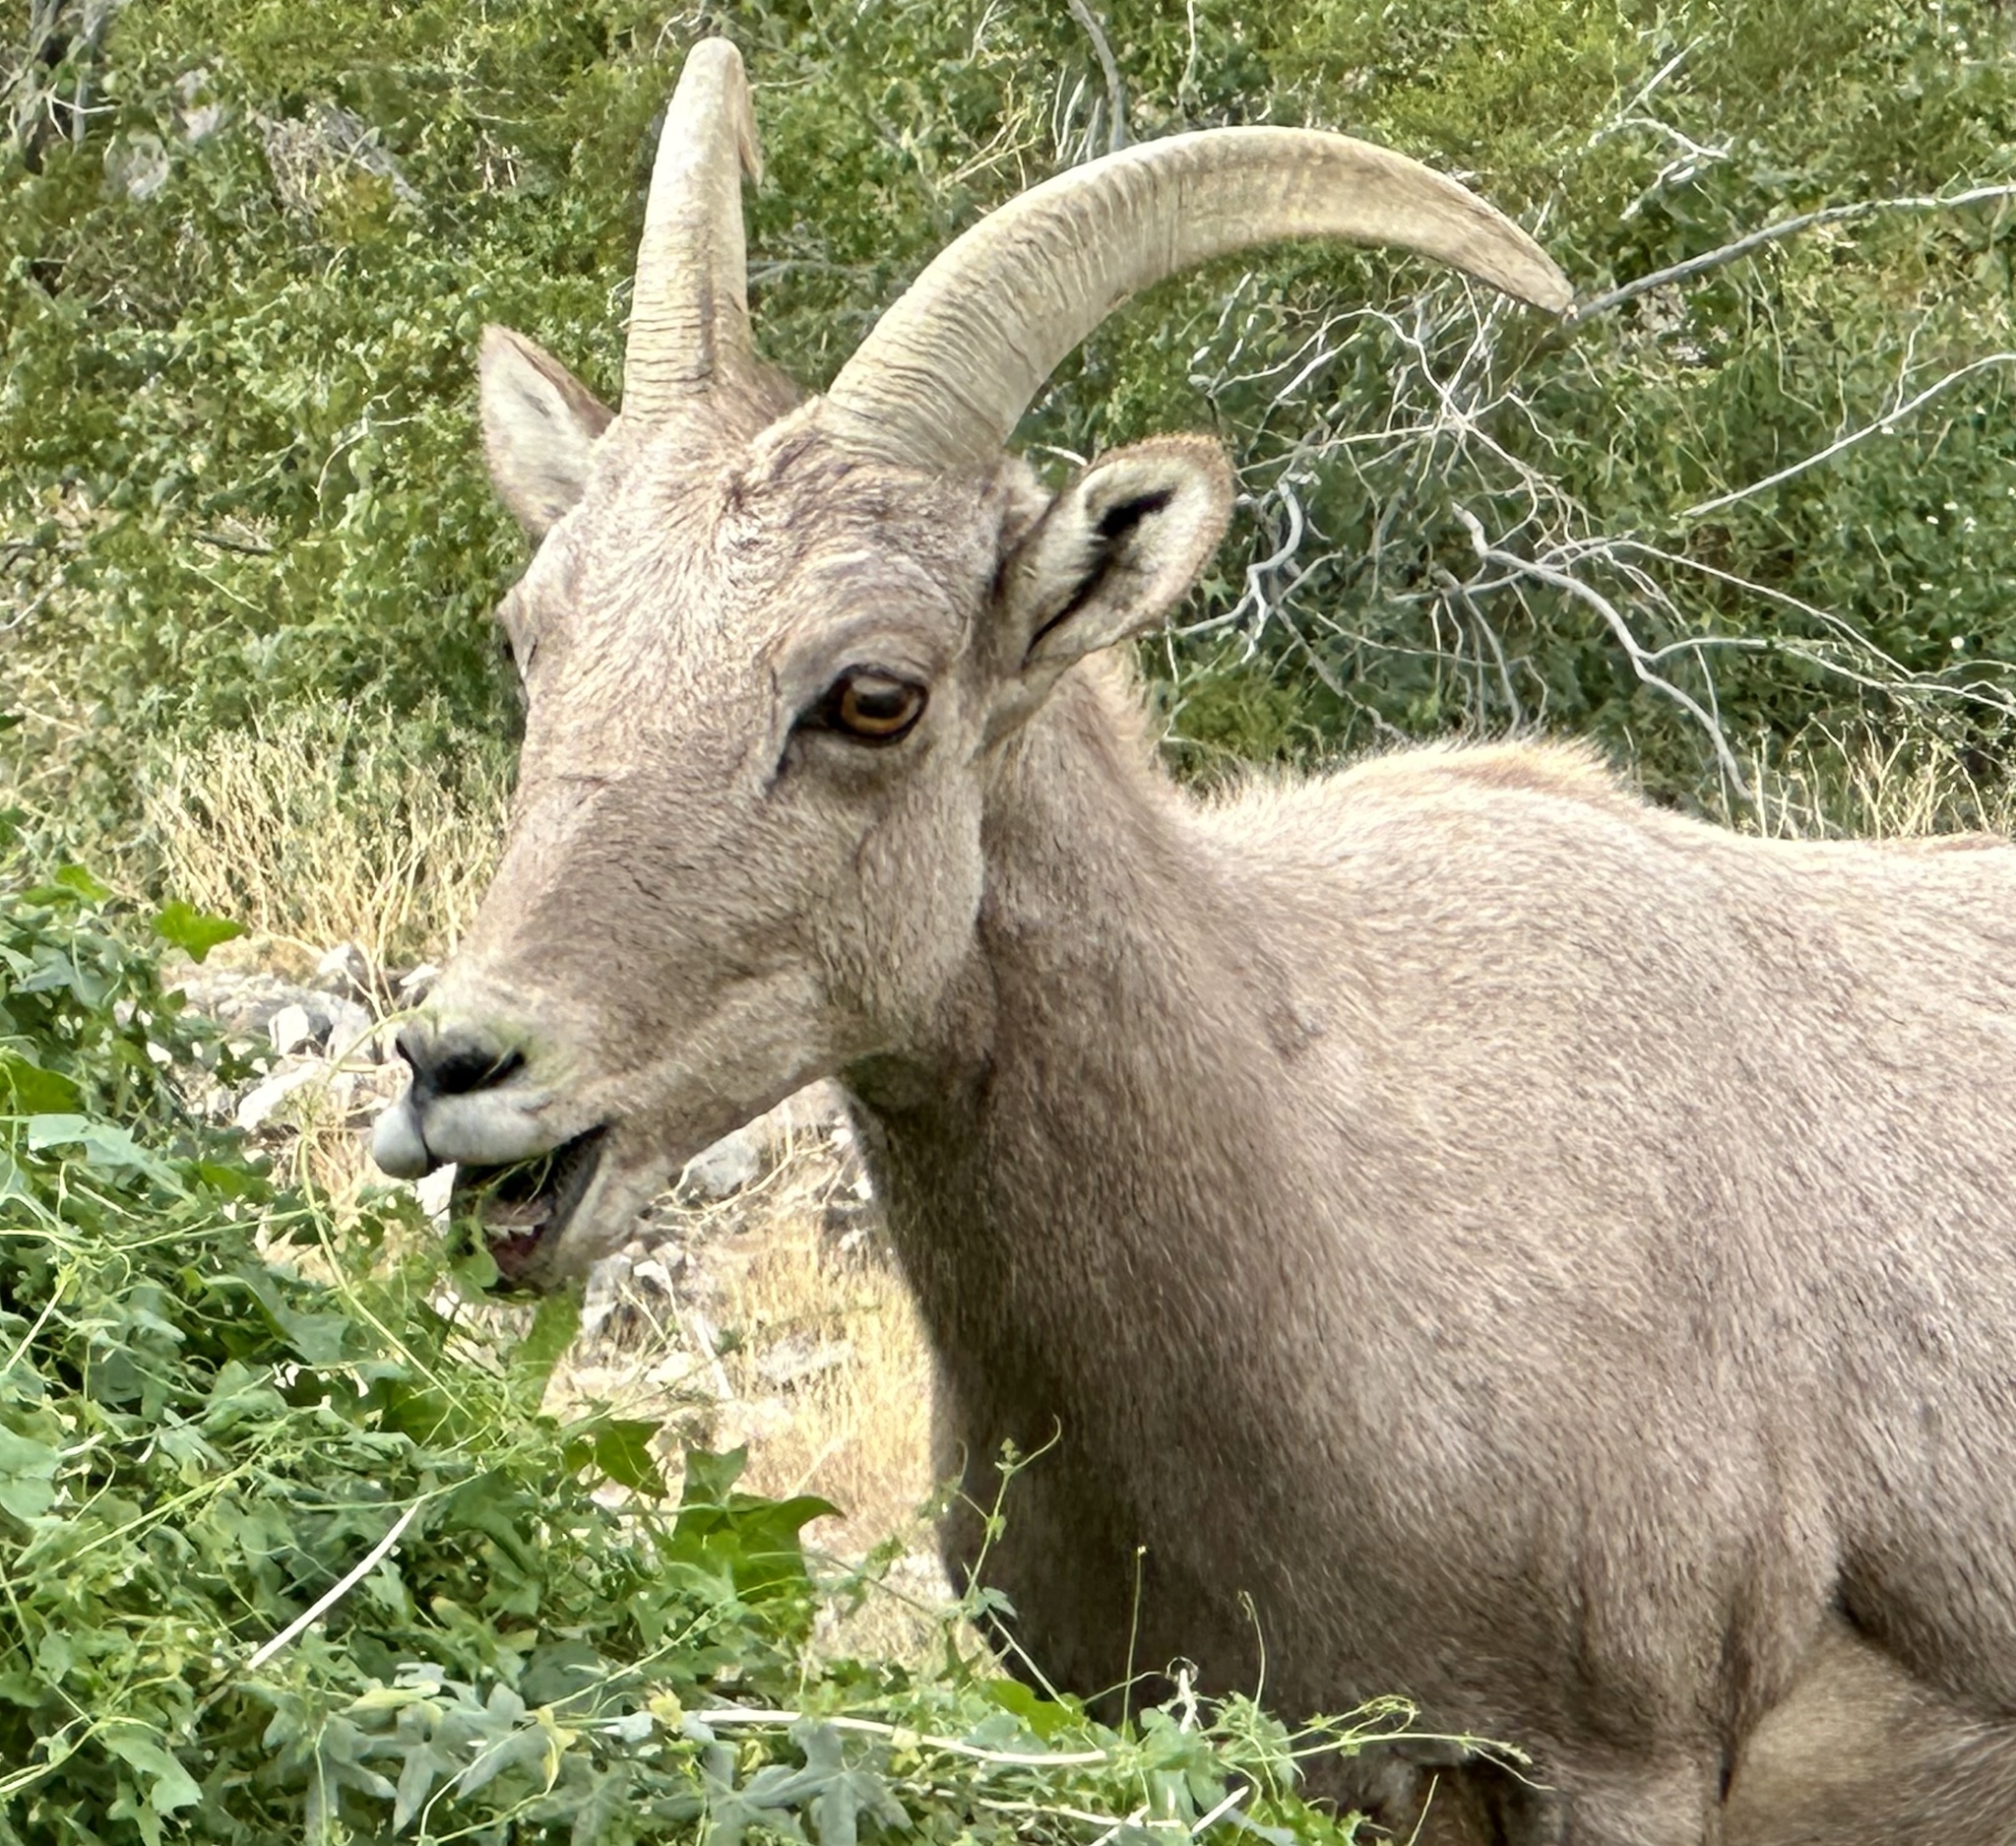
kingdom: Animalia
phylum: Chordata
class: Mammalia
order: Artiodactyla
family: Bovidae
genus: Ovis
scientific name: Ovis canadensis
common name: Bighorn sheep
